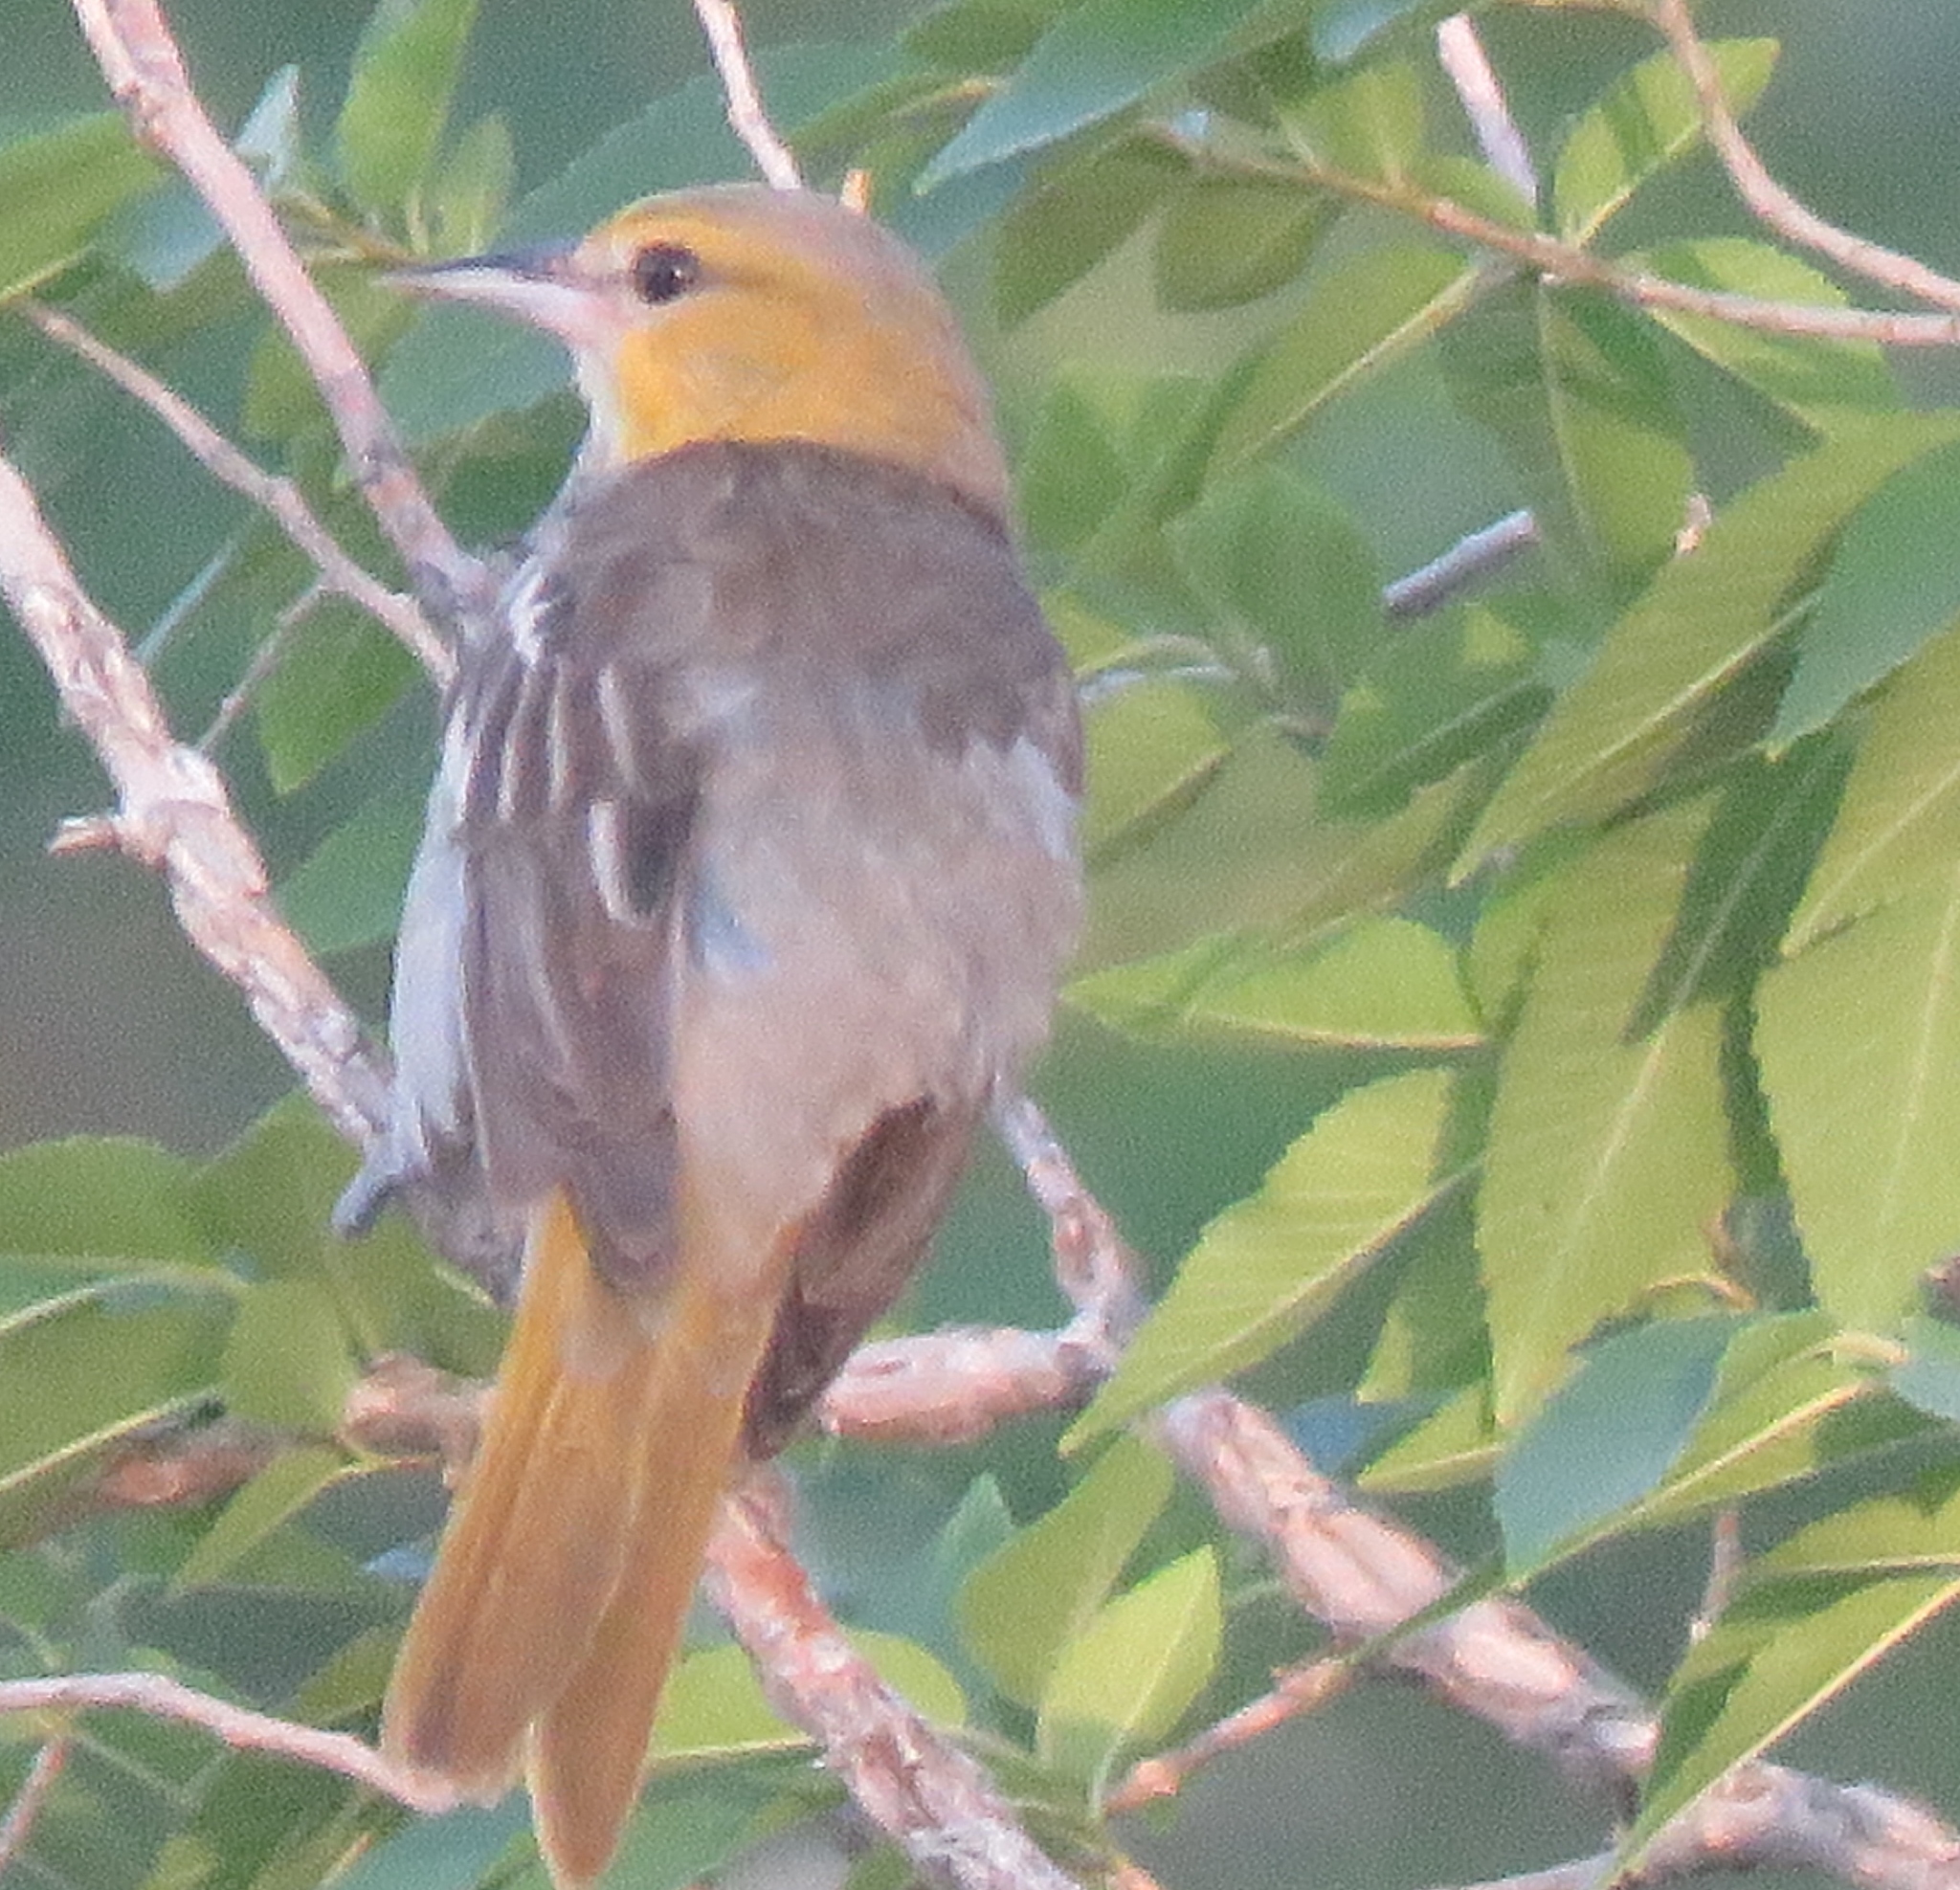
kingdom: Animalia
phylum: Chordata
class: Aves
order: Passeriformes
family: Icteridae
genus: Icterus
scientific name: Icterus bullockii
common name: Bullock's oriole
